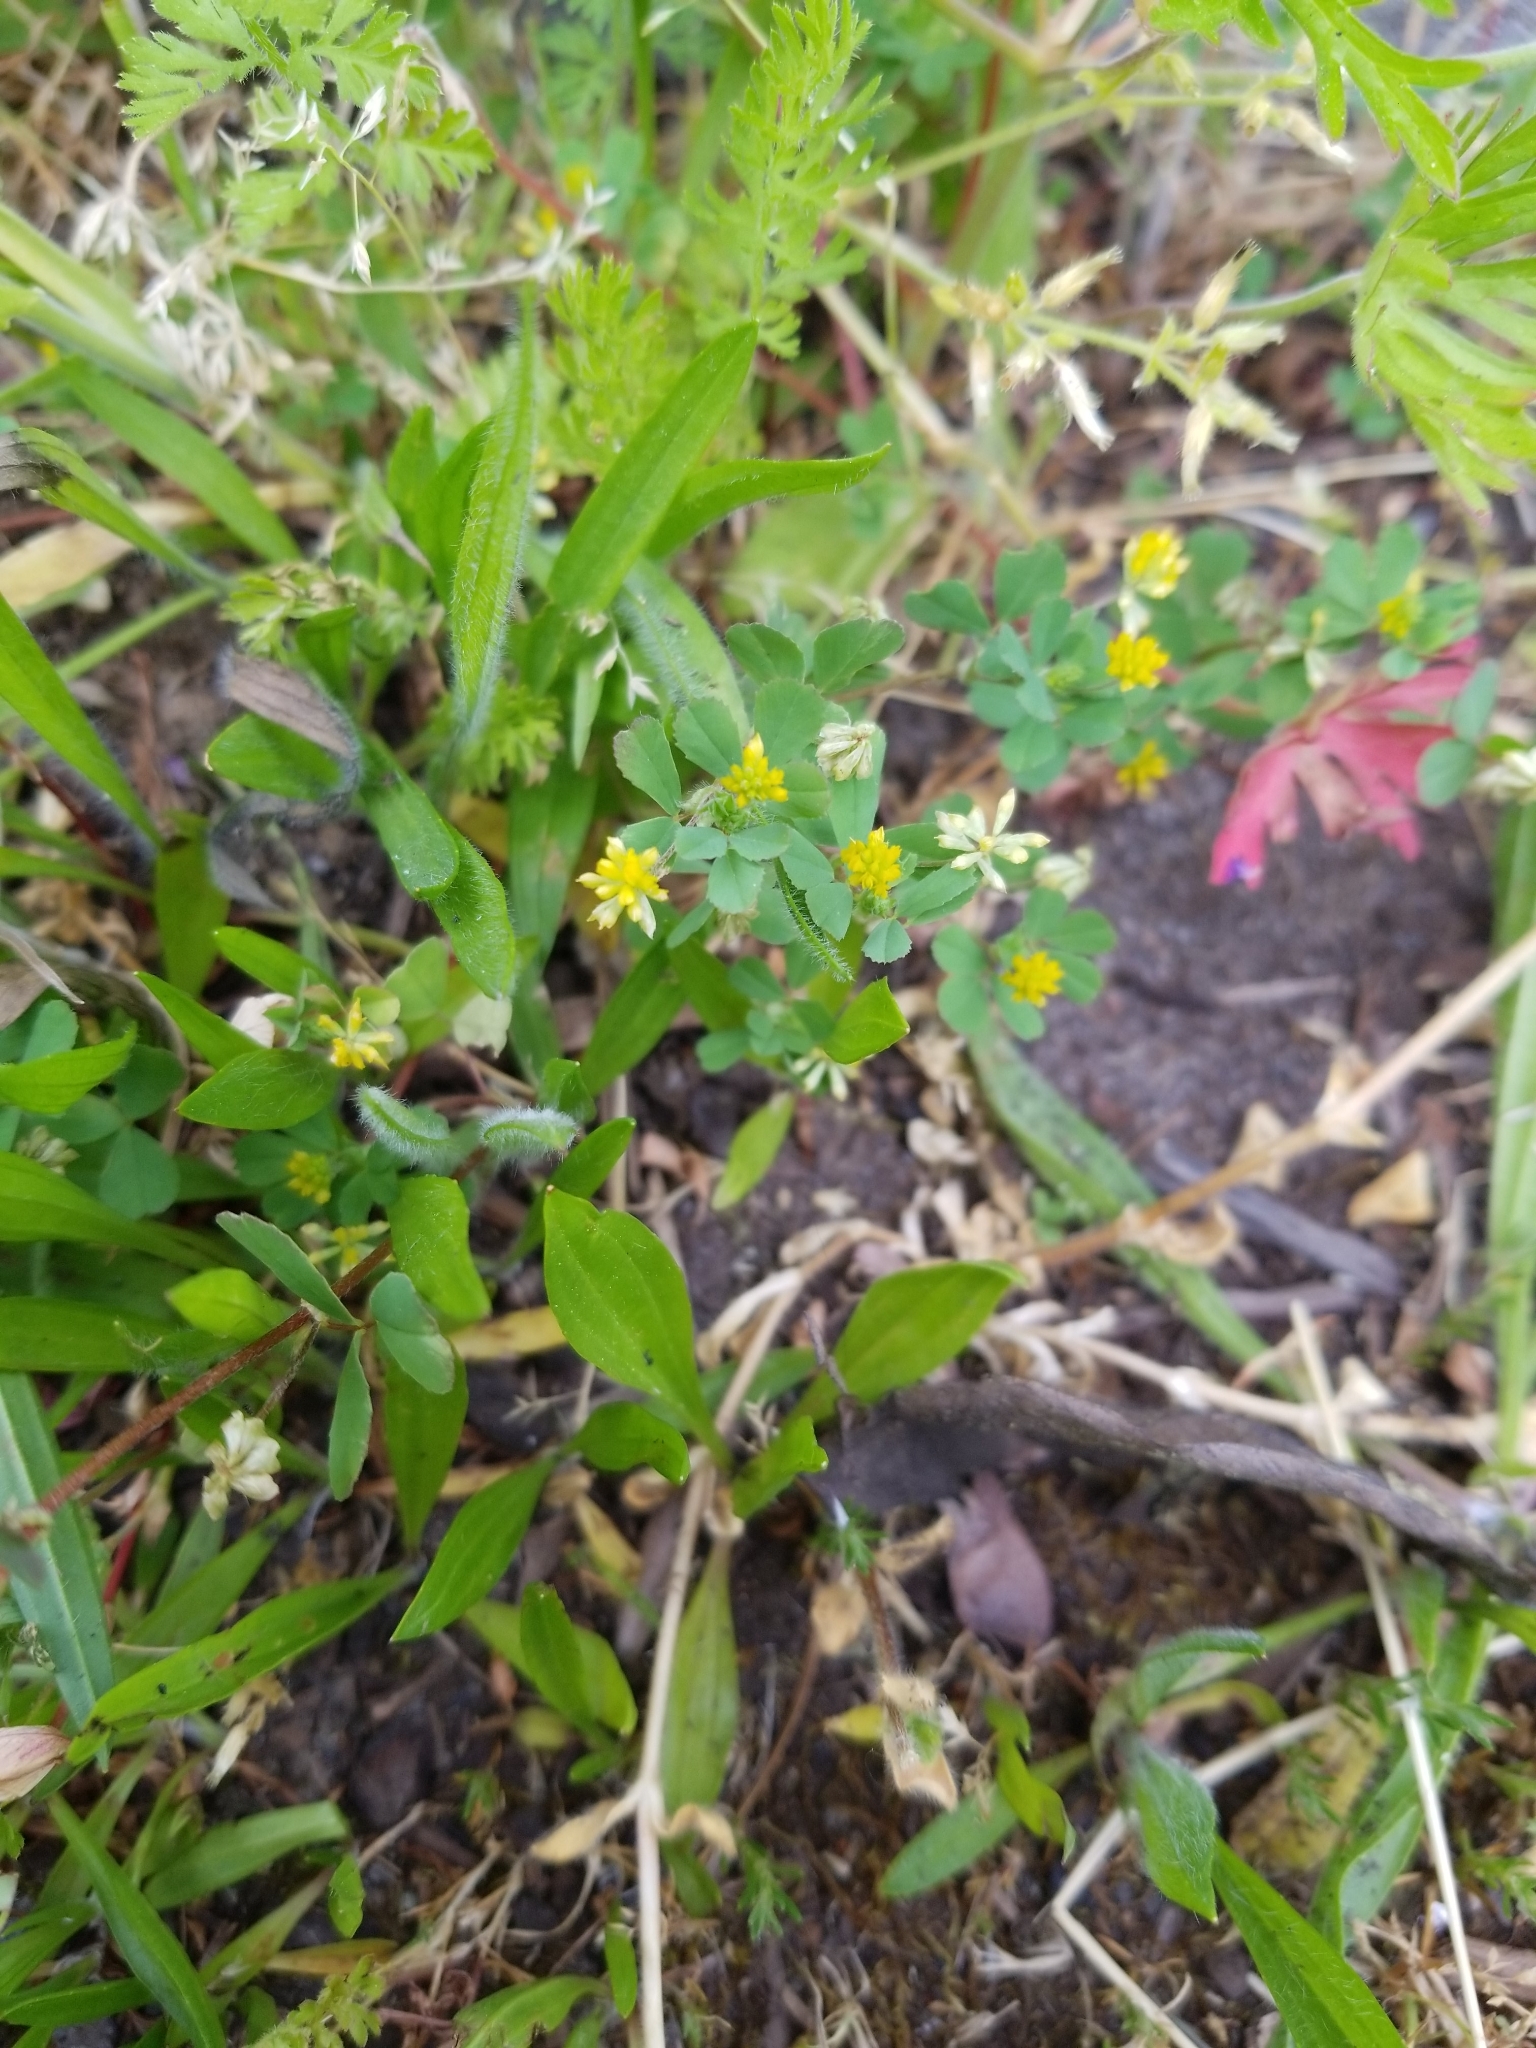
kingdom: Plantae
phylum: Tracheophyta
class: Magnoliopsida
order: Fabales
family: Fabaceae
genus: Trifolium
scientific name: Trifolium dubium
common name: Suckling clover
